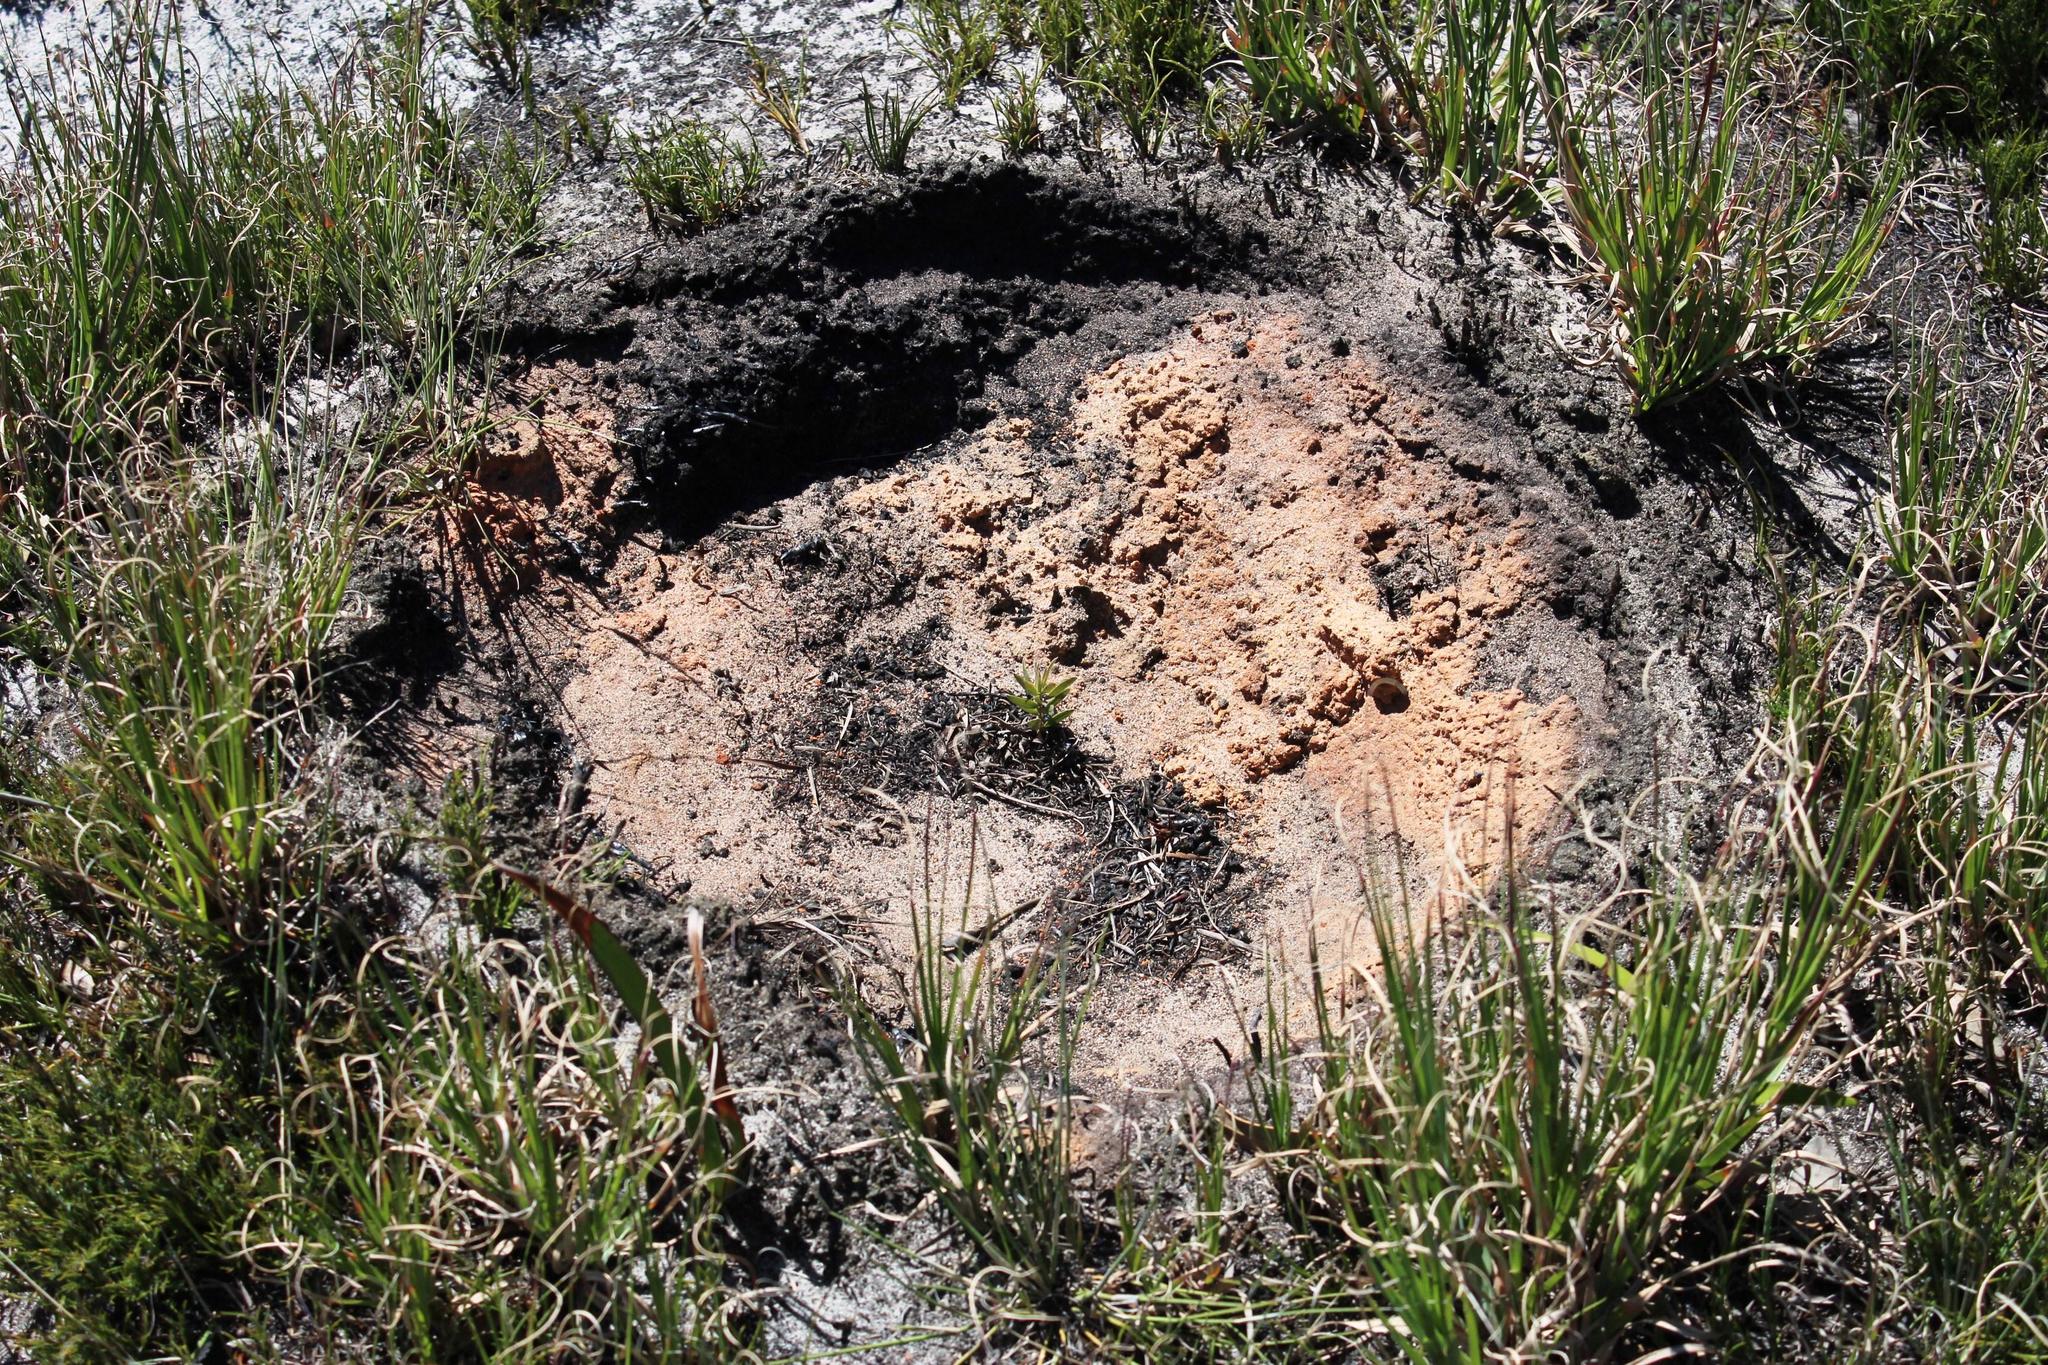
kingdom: Animalia
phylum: Arthropoda
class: Insecta
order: Blattodea
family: Termitidae
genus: Amitermes
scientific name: Amitermes hastatus
